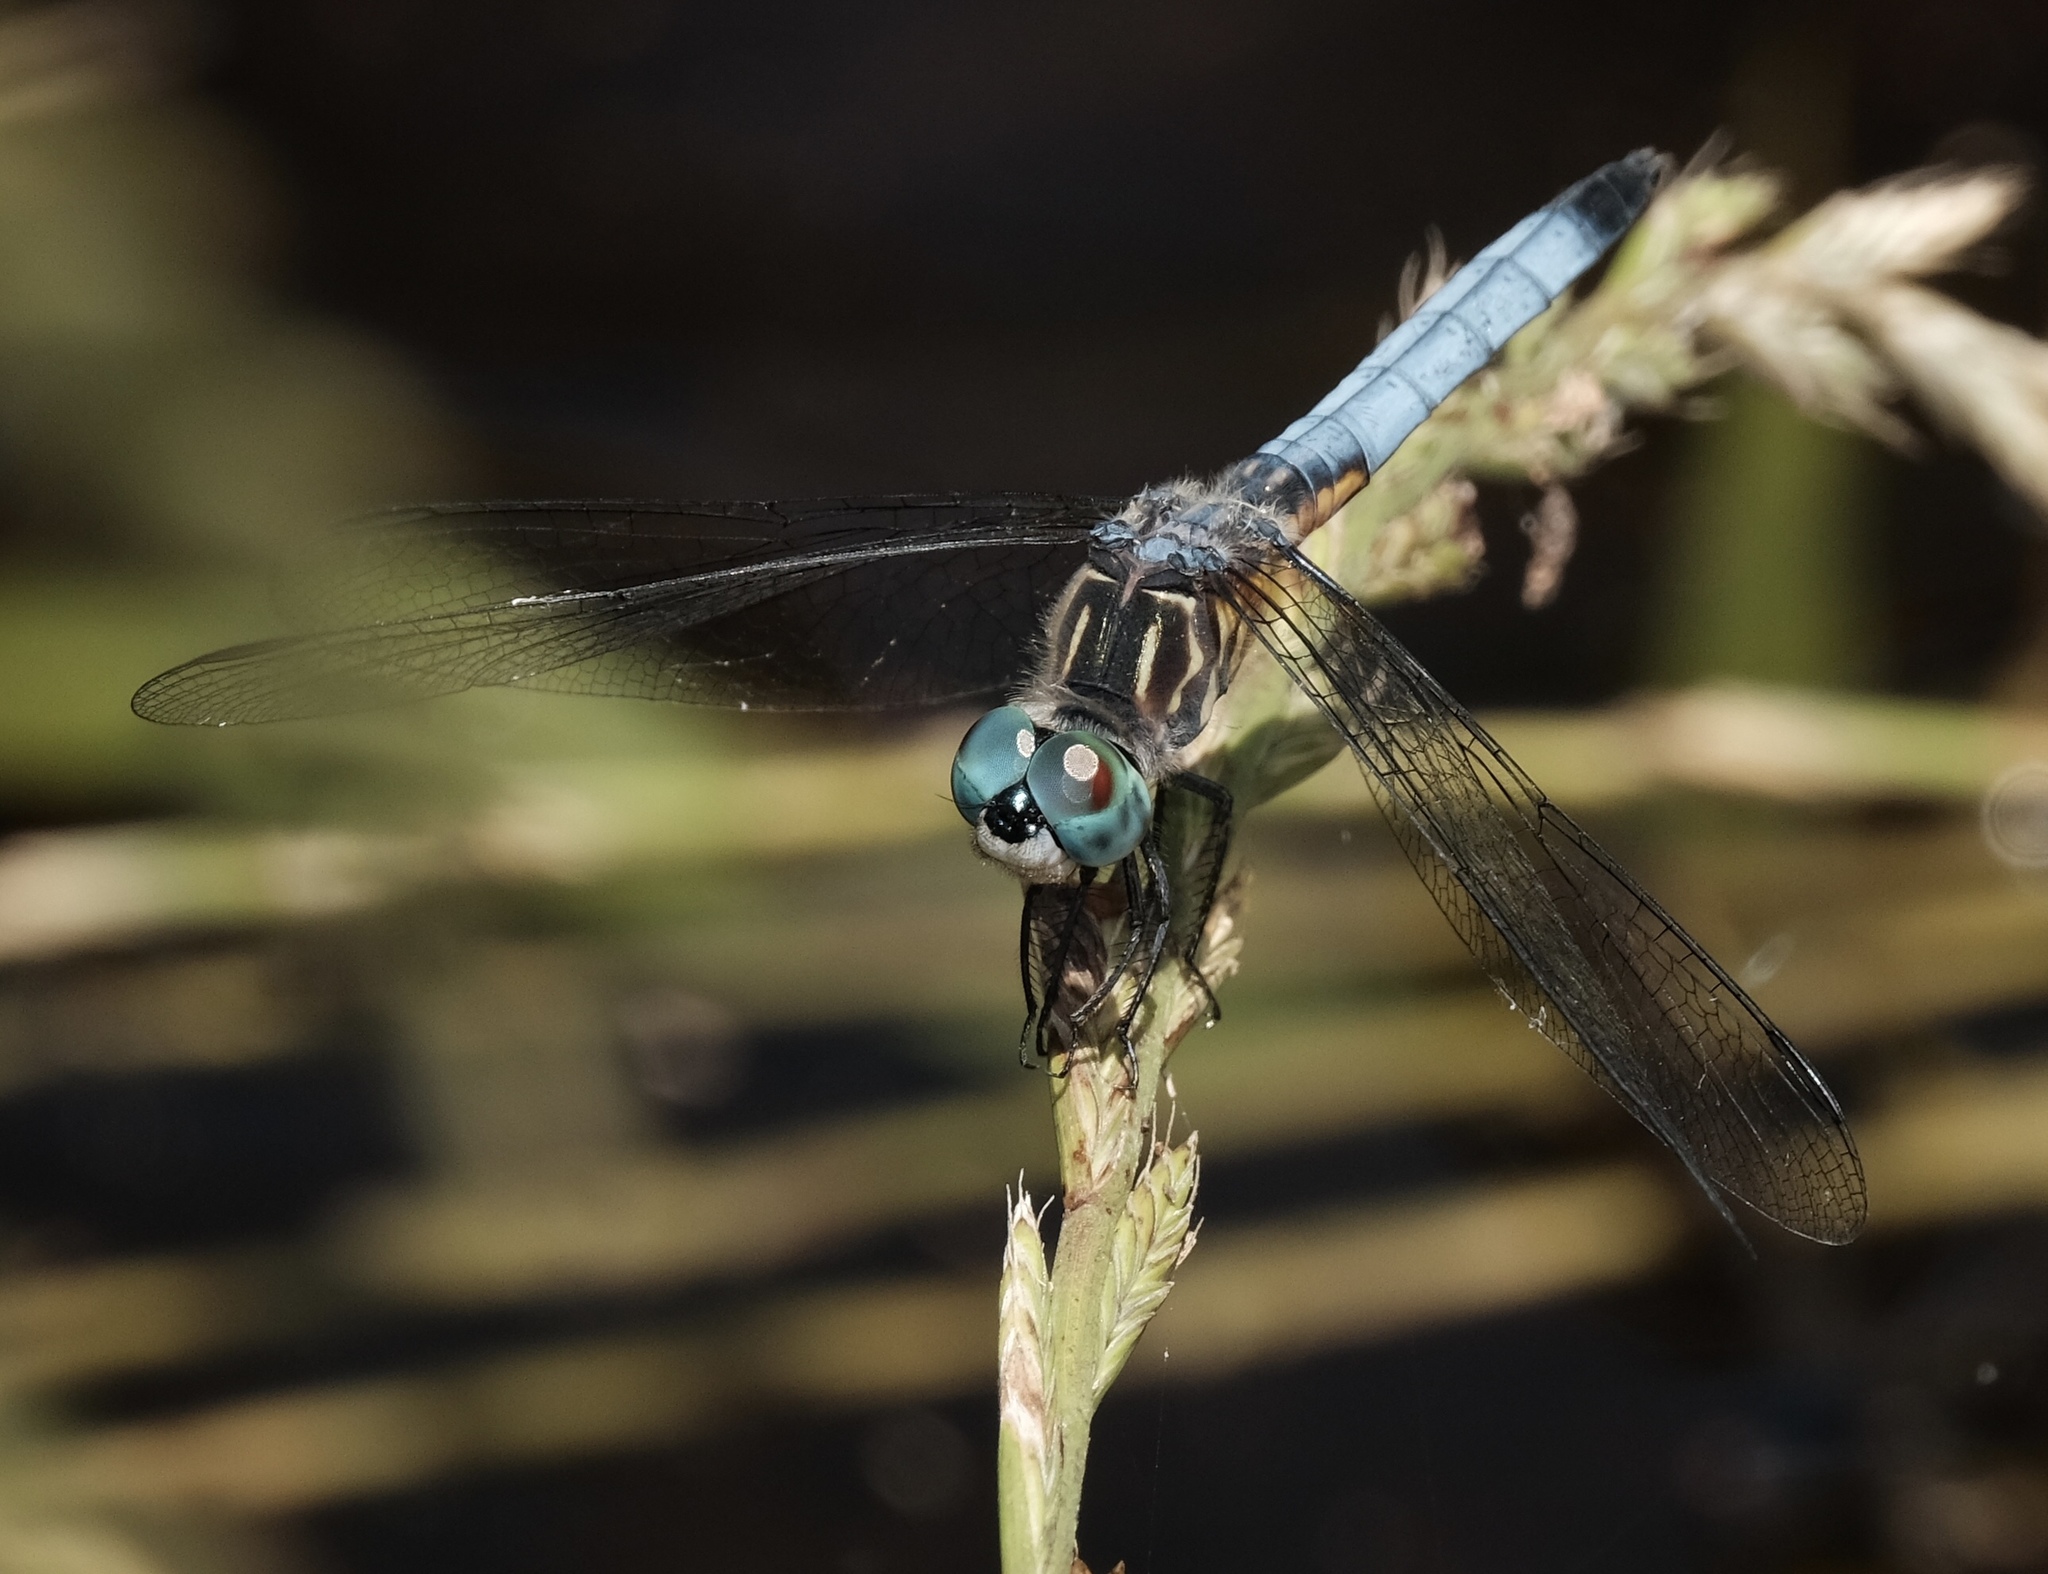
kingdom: Animalia
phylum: Arthropoda
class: Insecta
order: Odonata
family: Libellulidae
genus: Pachydiplax
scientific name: Pachydiplax longipennis
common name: Blue dasher
